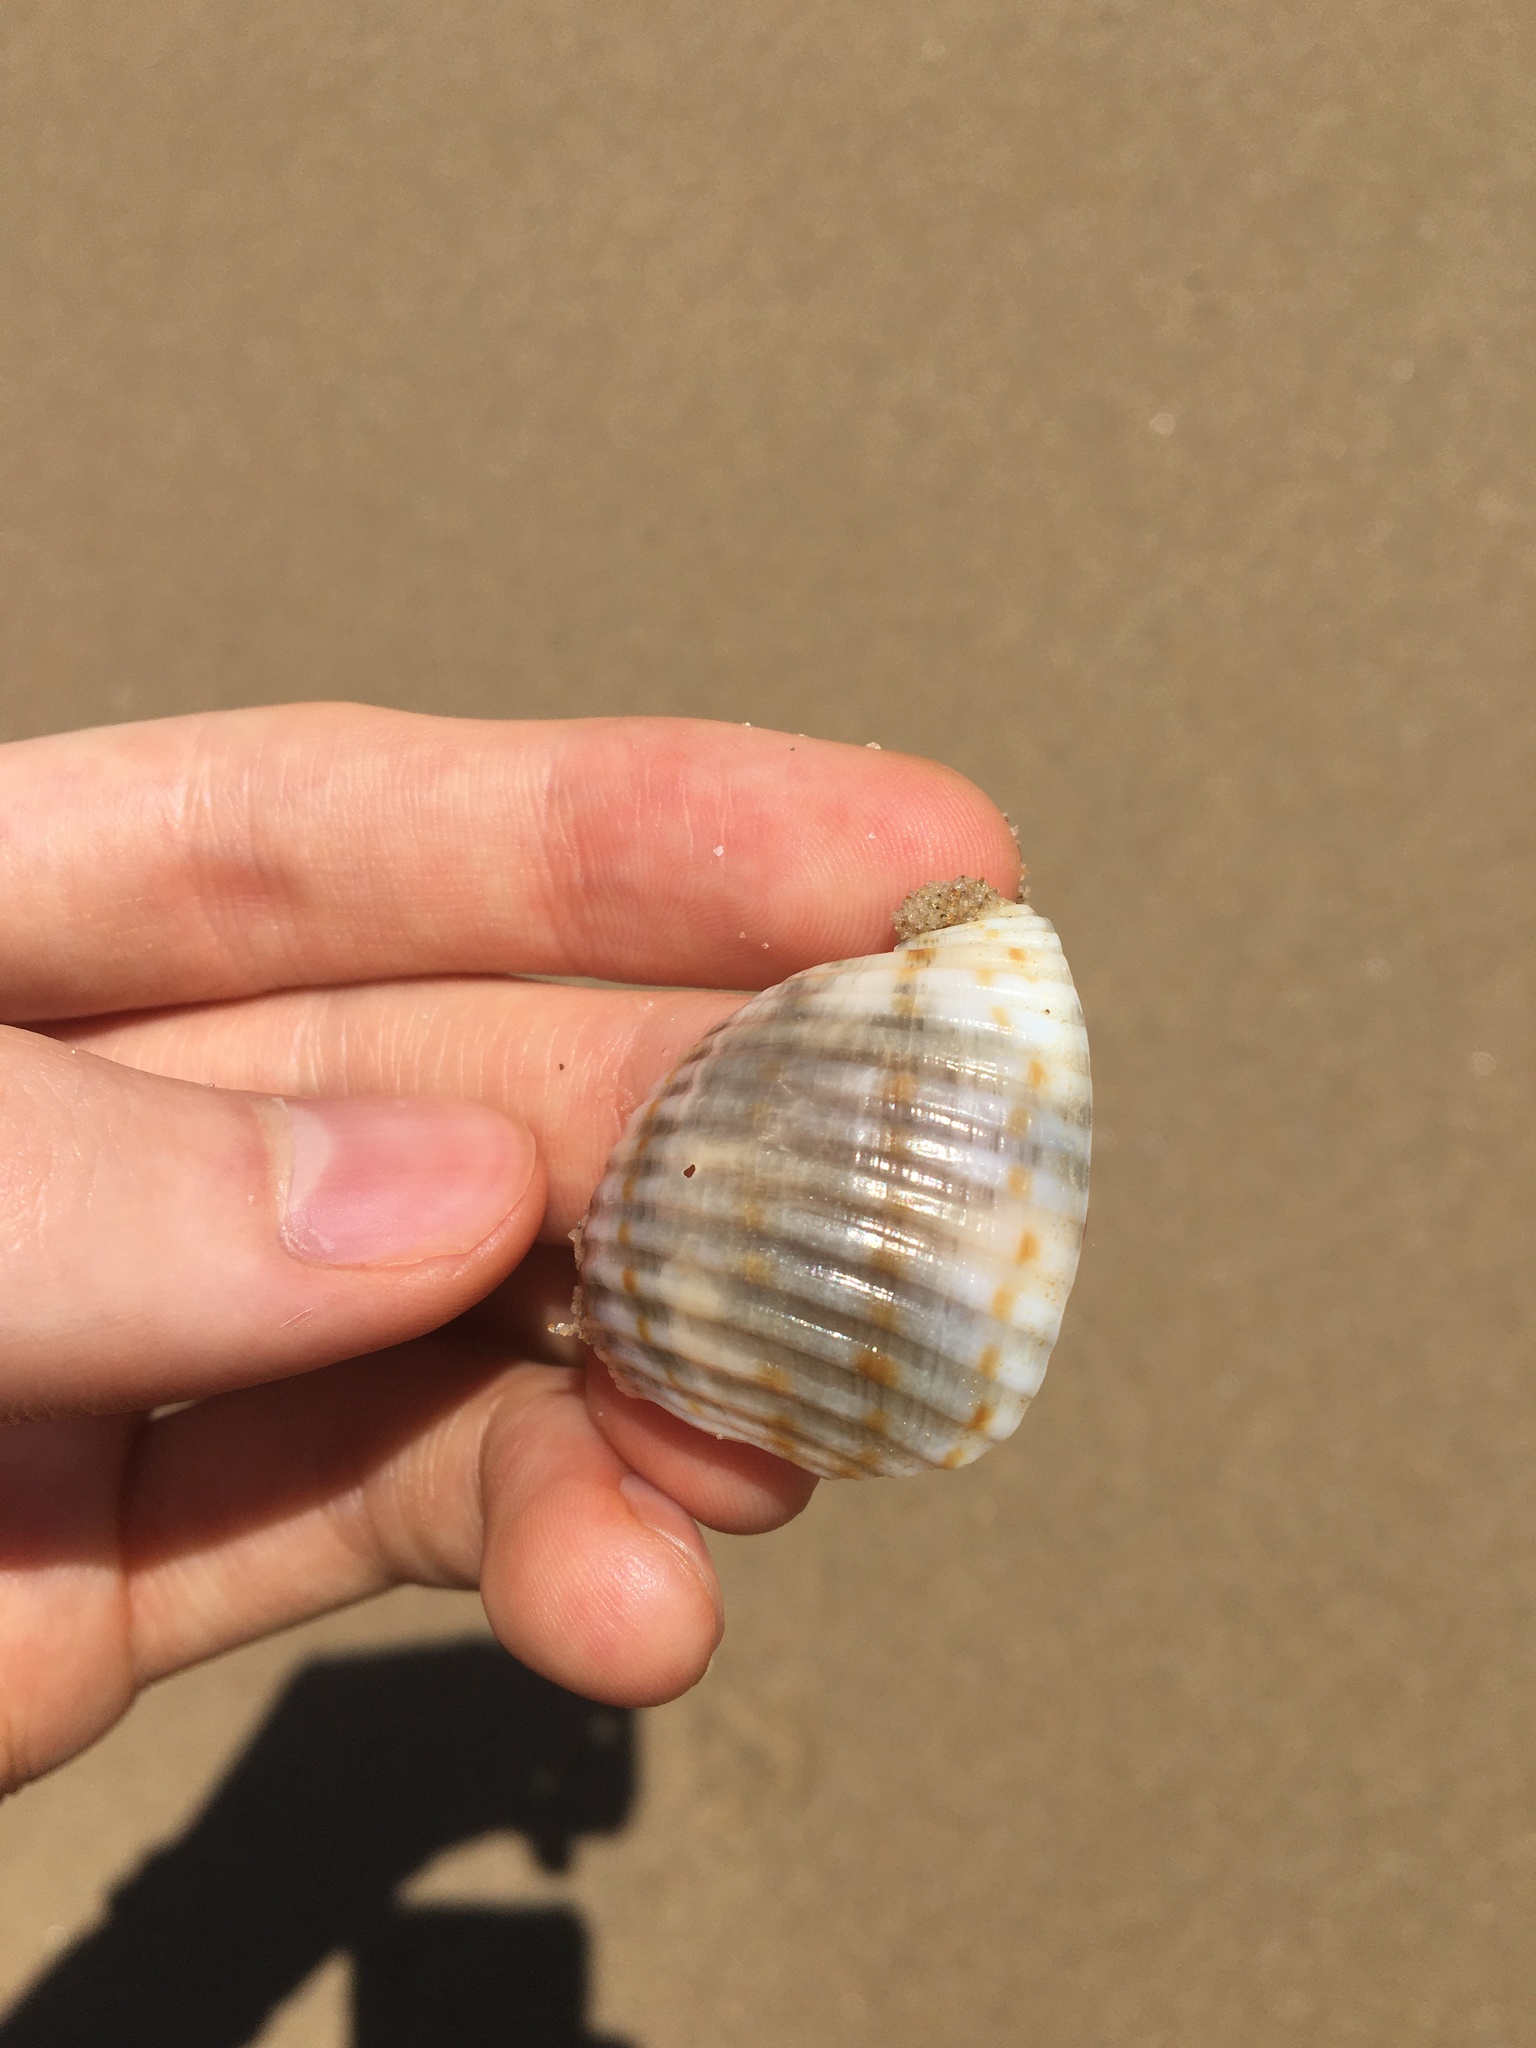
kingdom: Animalia
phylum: Mollusca
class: Gastropoda
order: Littorinimorpha
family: Tonnidae
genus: Tonna
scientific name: Tonna tankervillii
